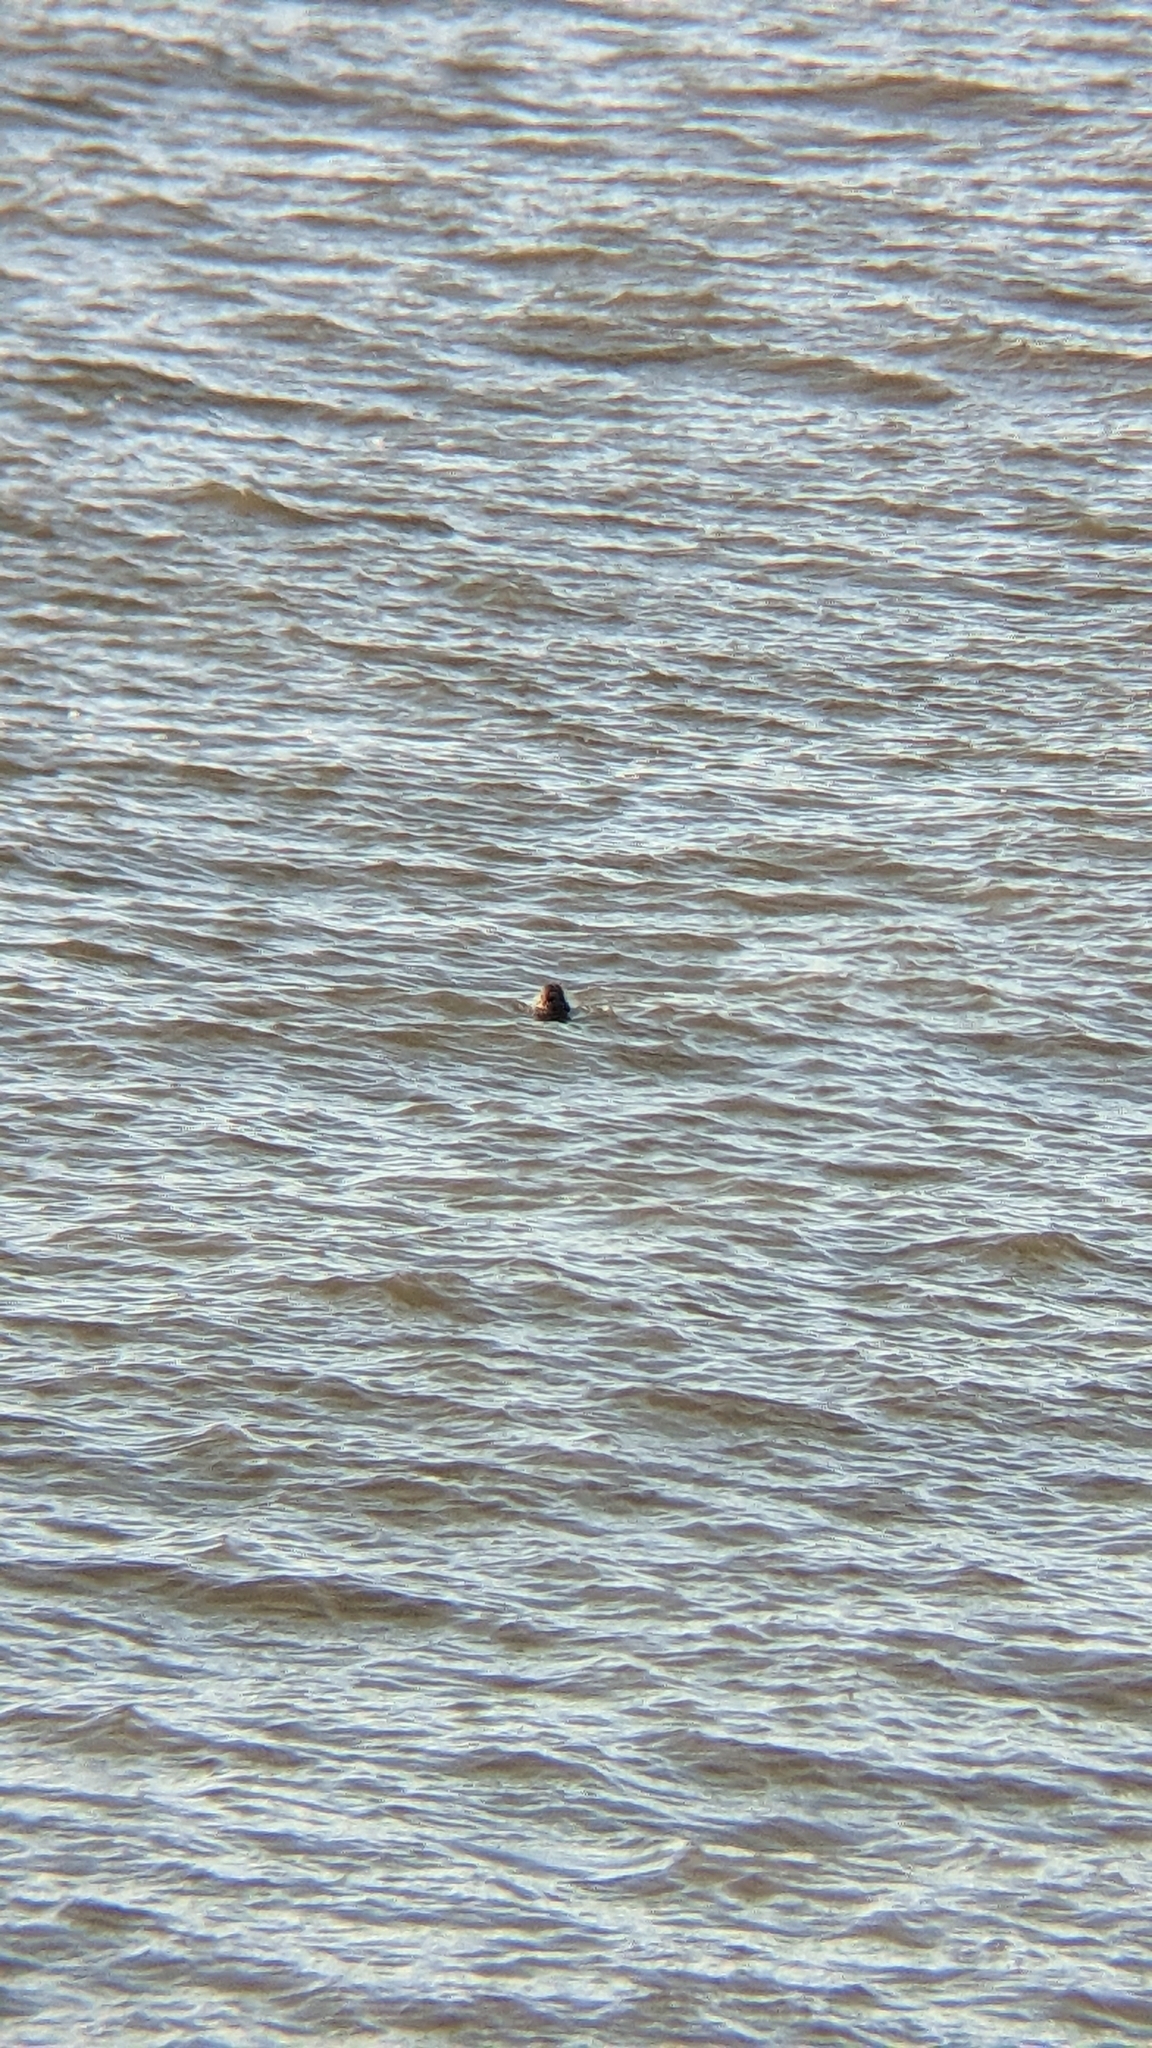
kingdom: Animalia
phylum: Chordata
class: Mammalia
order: Carnivora
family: Phocidae
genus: Phoca
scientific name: Phoca vitulina
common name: Harbor seal
